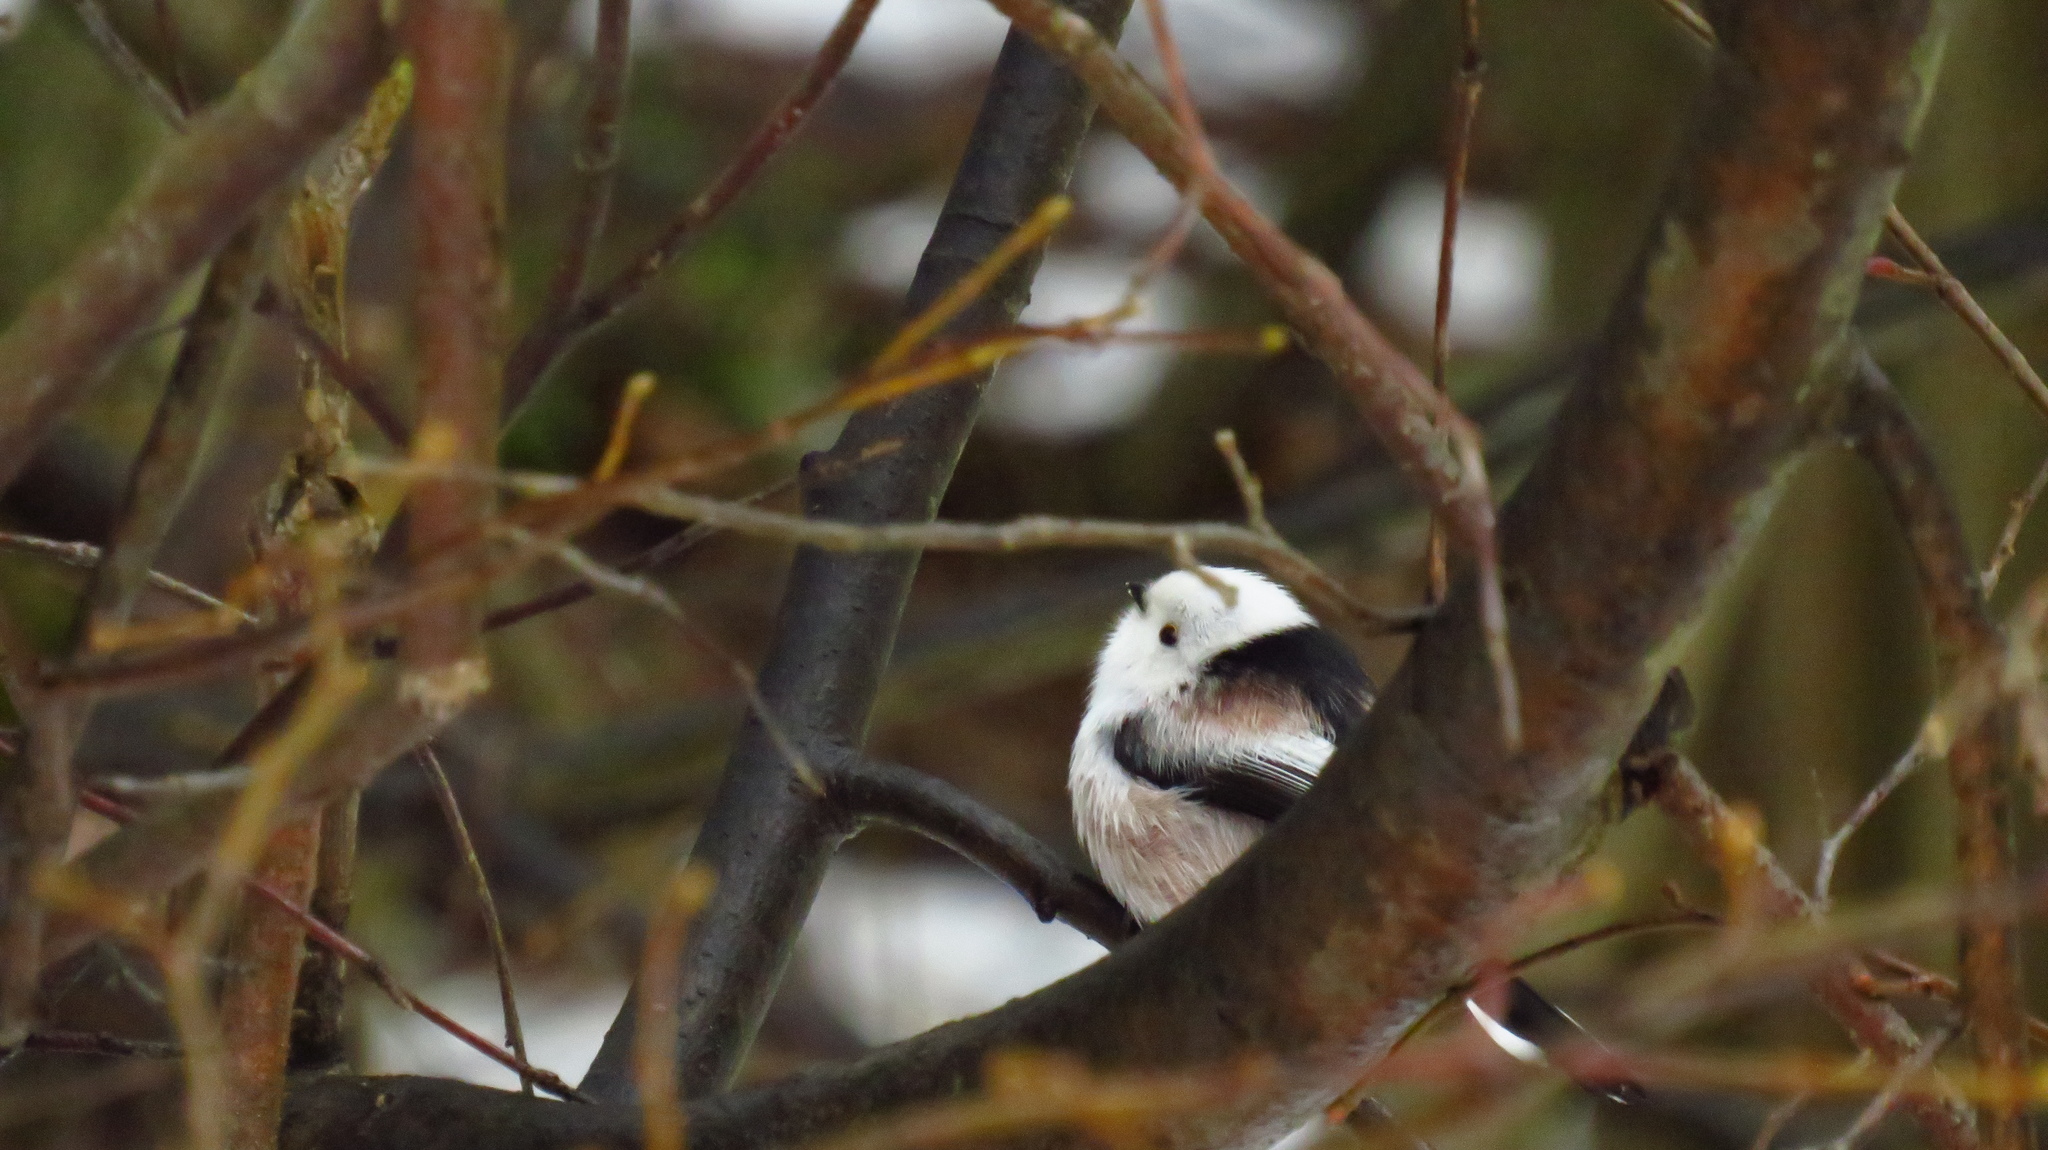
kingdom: Animalia
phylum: Chordata
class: Aves
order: Passeriformes
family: Aegithalidae
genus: Aegithalos
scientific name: Aegithalos caudatus
